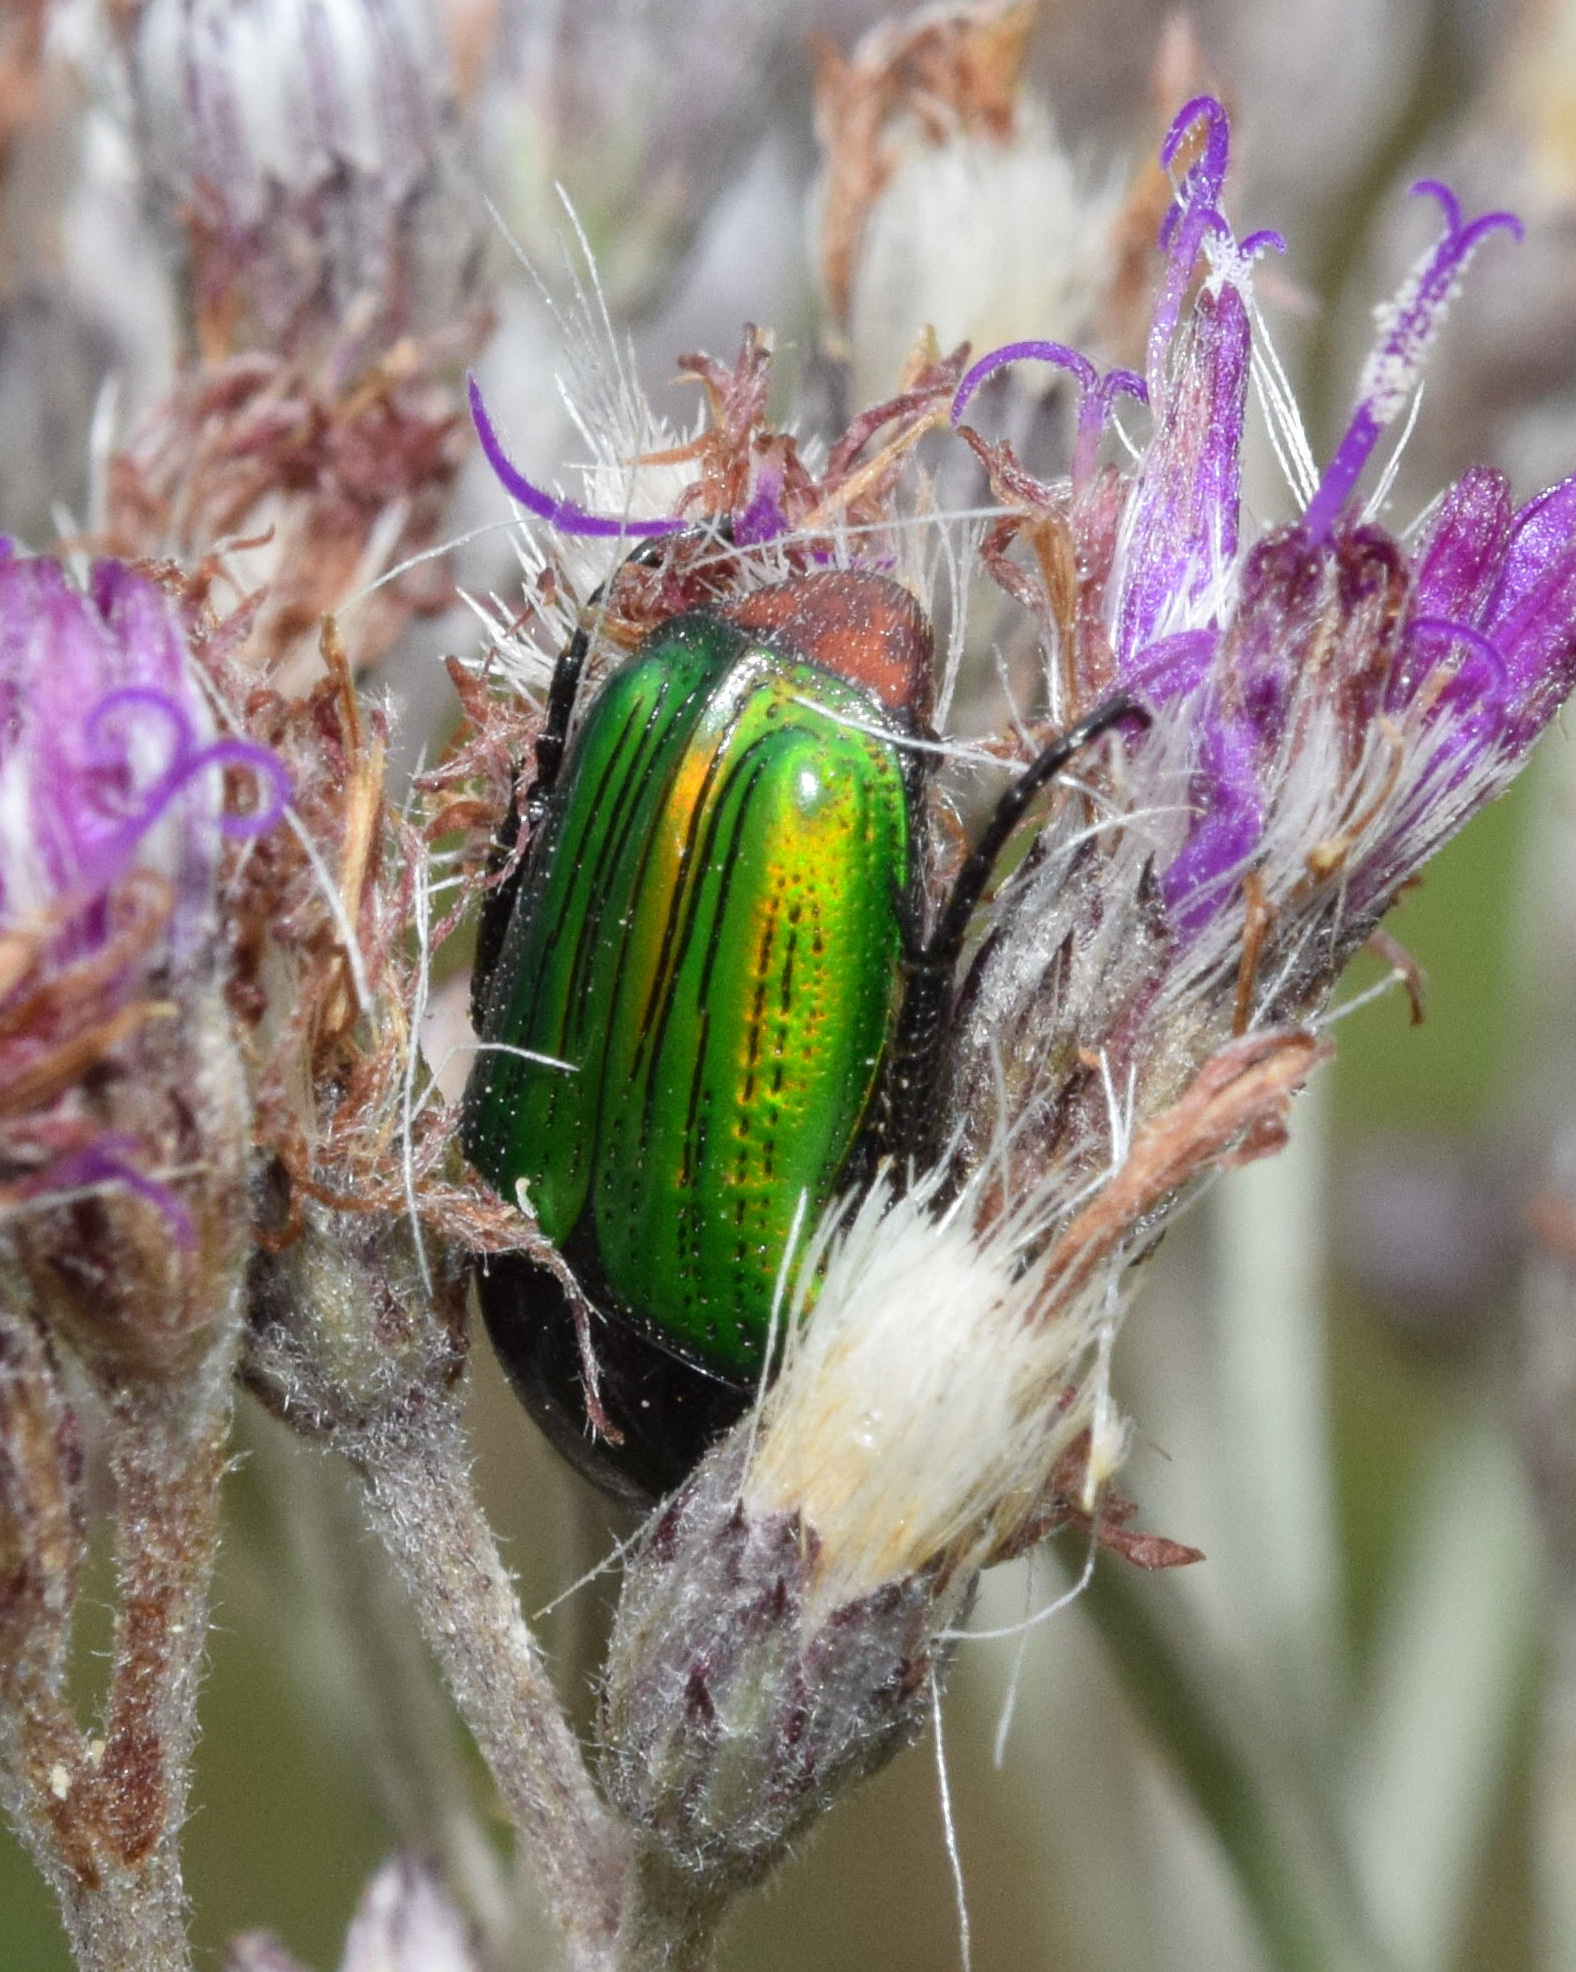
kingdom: Animalia
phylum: Arthropoda
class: Insecta
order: Coleoptera
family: Scarabaeidae
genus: Leucocelis
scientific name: Leucocelis haemorrhoidalis
